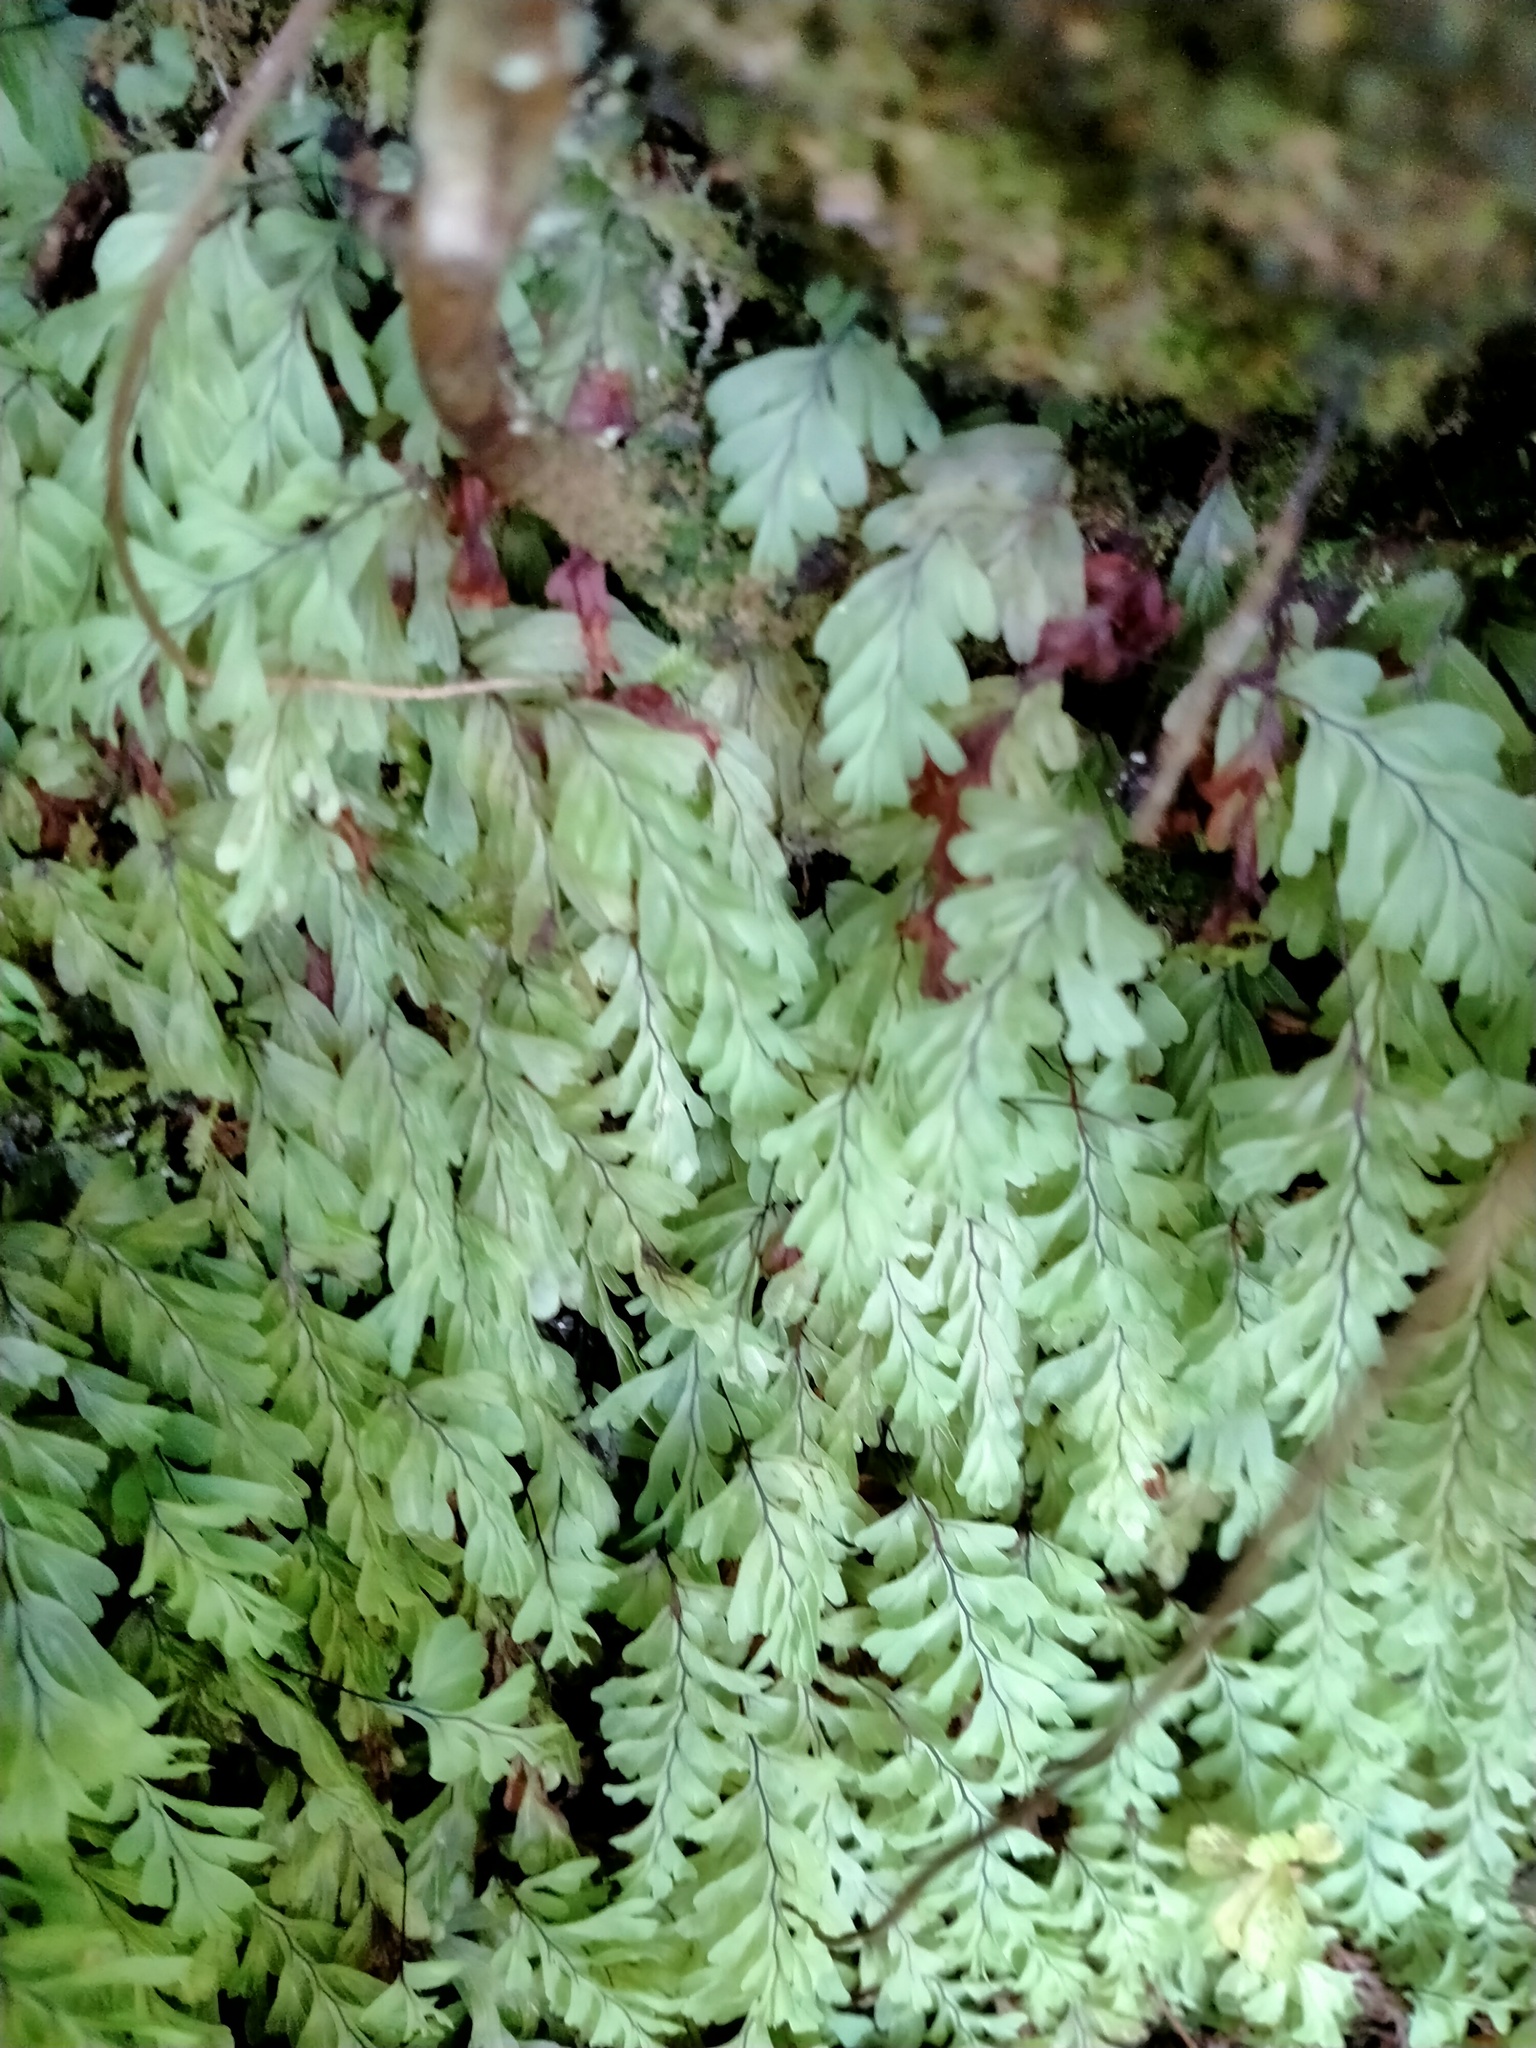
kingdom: Plantae
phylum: Tracheophyta
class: Polypodiopsida
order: Hymenophyllales
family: Hymenophyllaceae
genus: Hymenophyllum
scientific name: Hymenophyllum rarum
